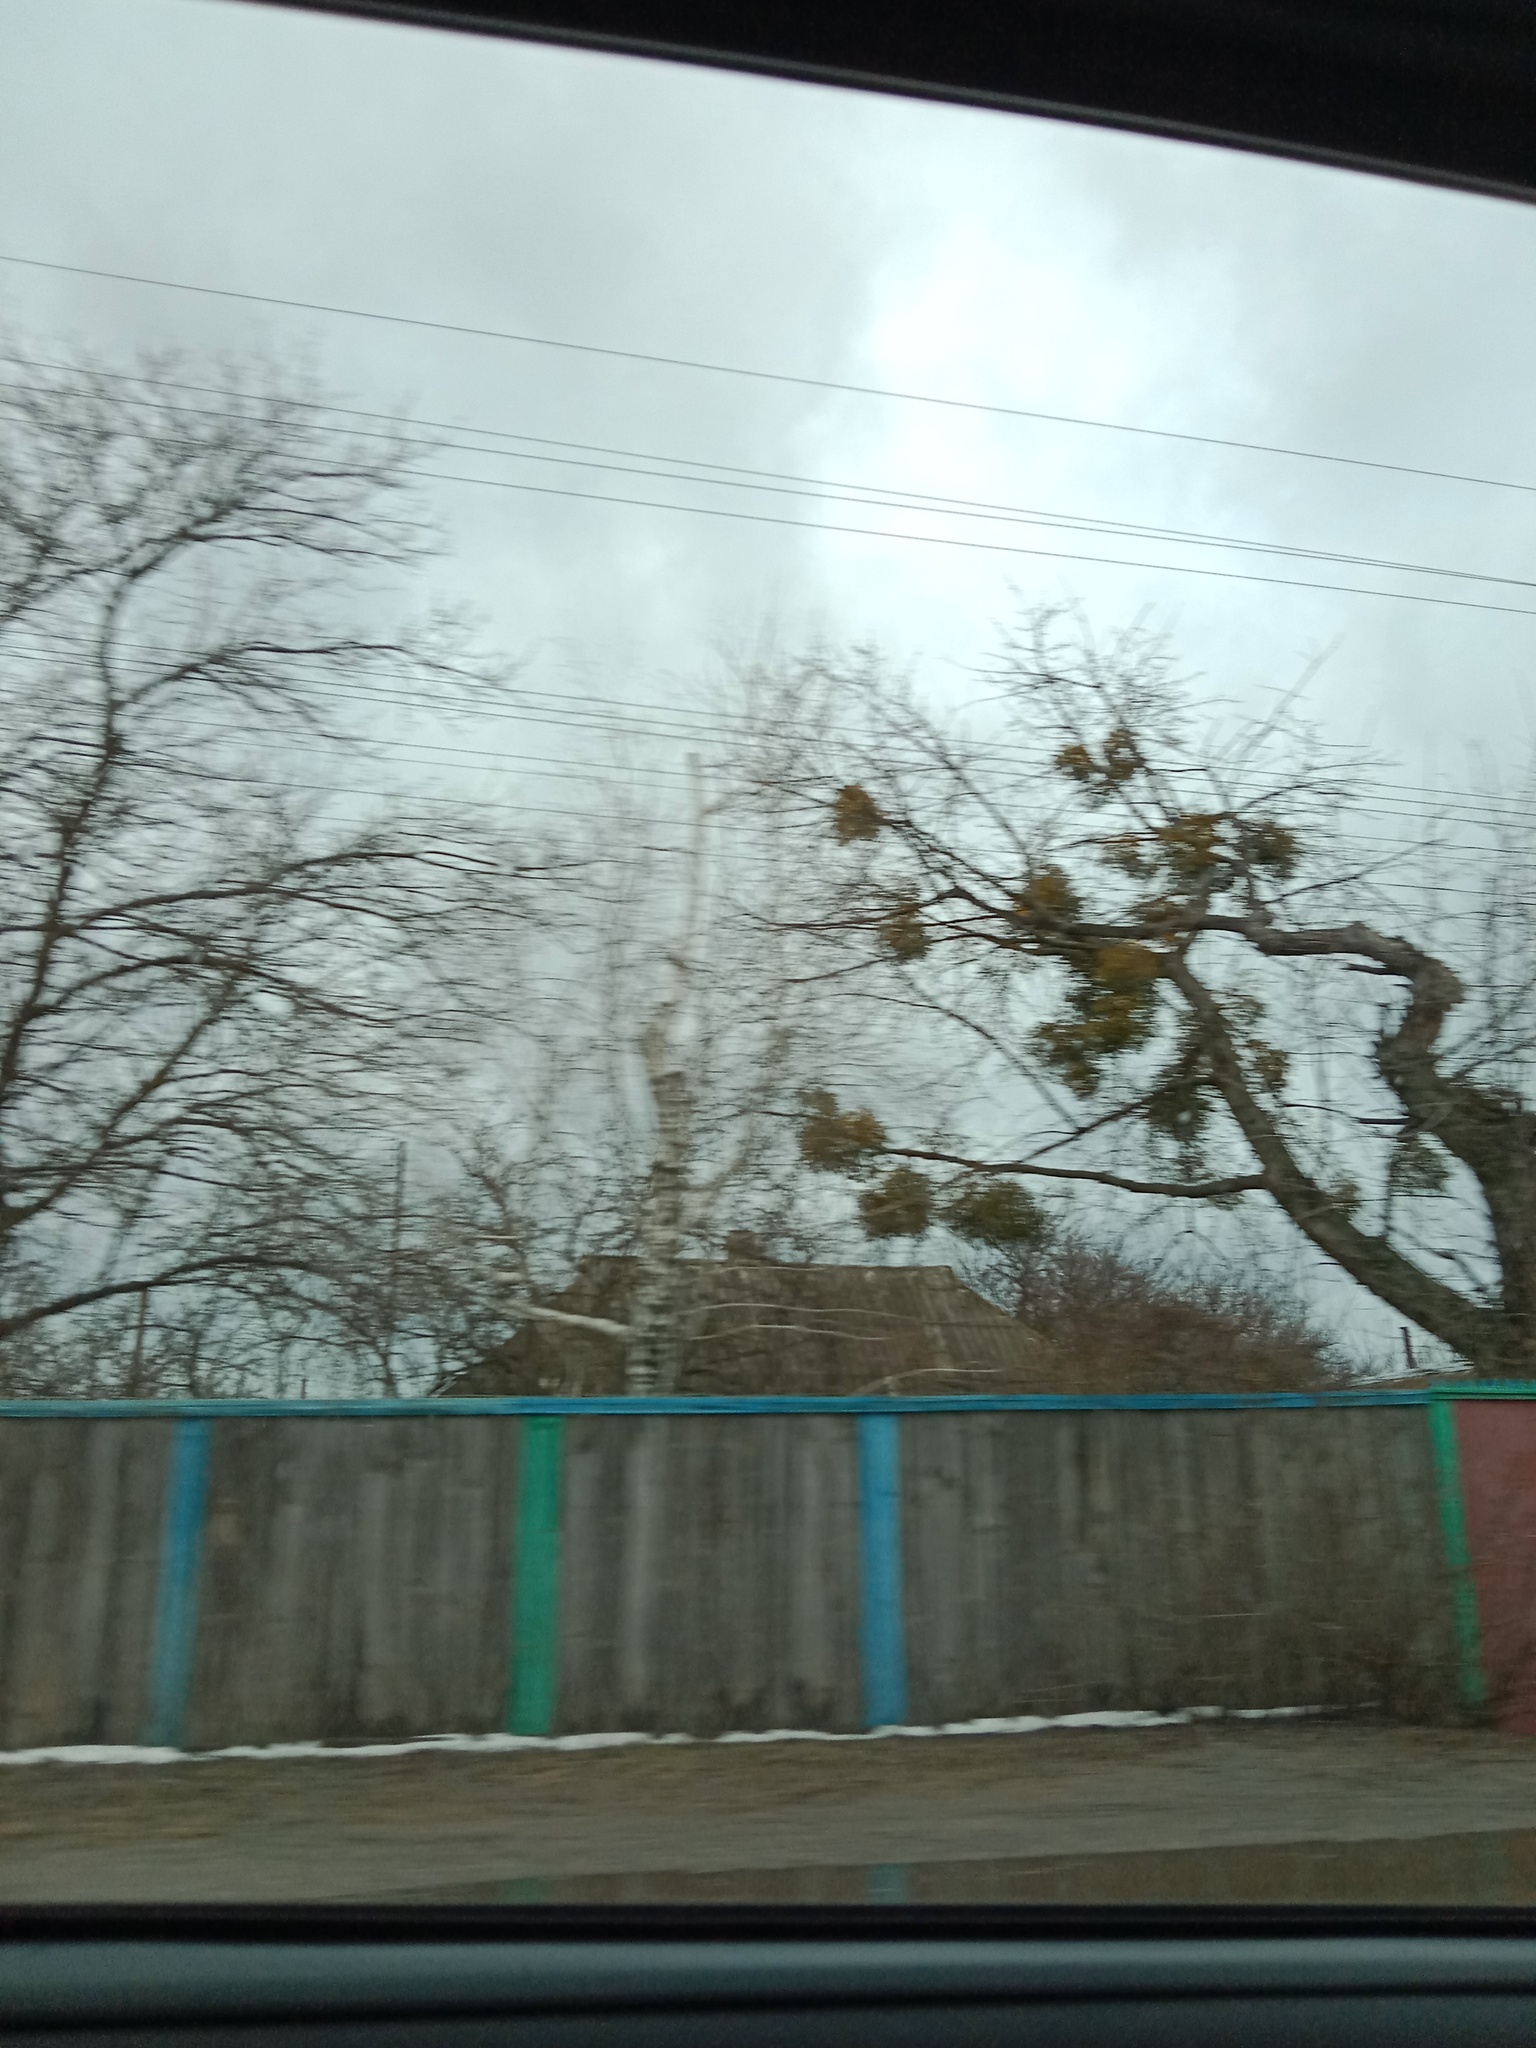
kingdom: Plantae
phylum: Tracheophyta
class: Magnoliopsida
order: Santalales
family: Viscaceae
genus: Viscum
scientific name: Viscum album
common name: Mistletoe
